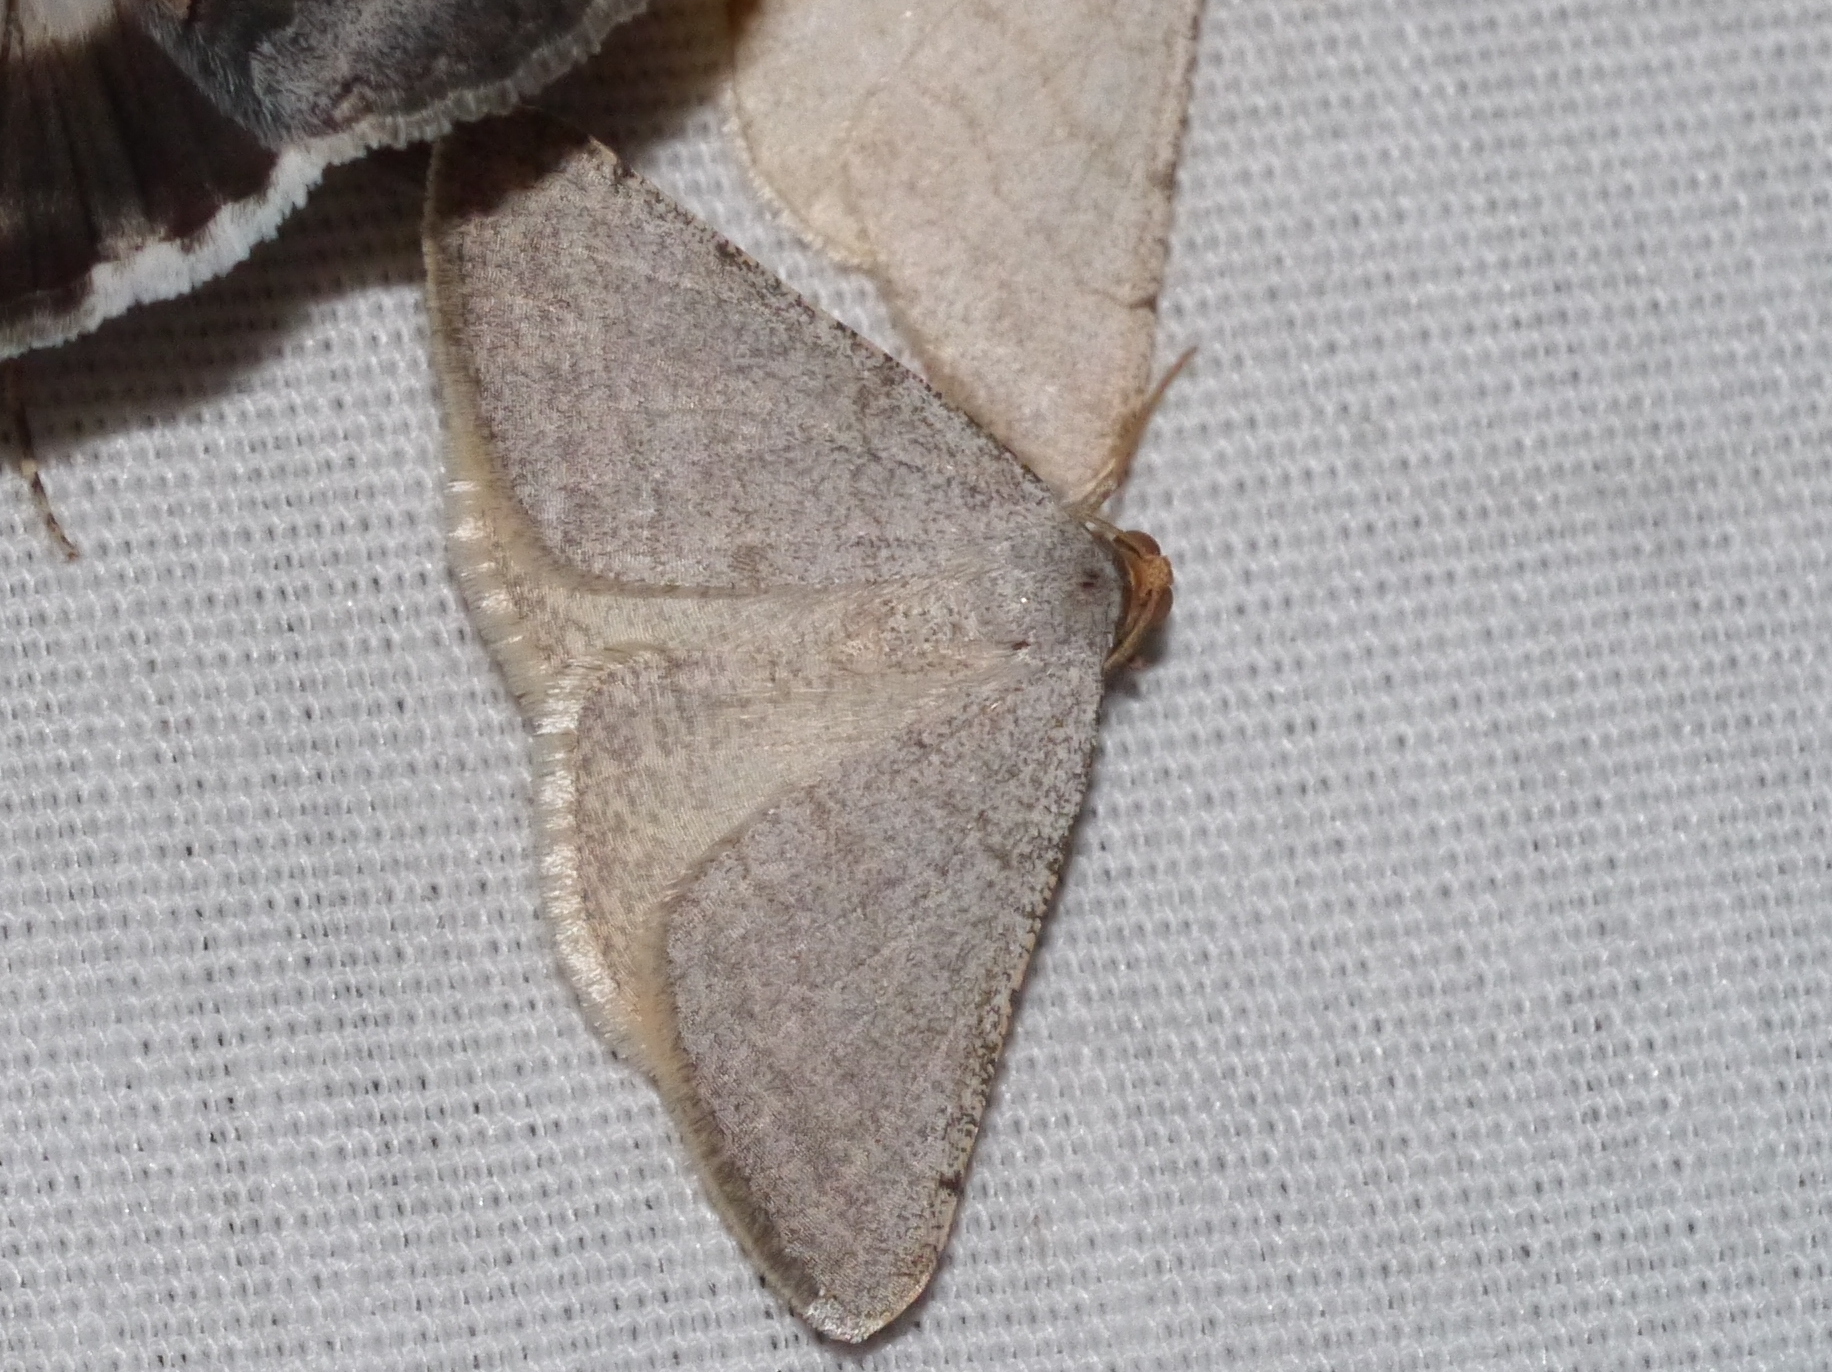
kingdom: Animalia
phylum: Arthropoda
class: Insecta
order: Lepidoptera
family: Geometridae
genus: Macaria
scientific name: Macaria tenebrosata
